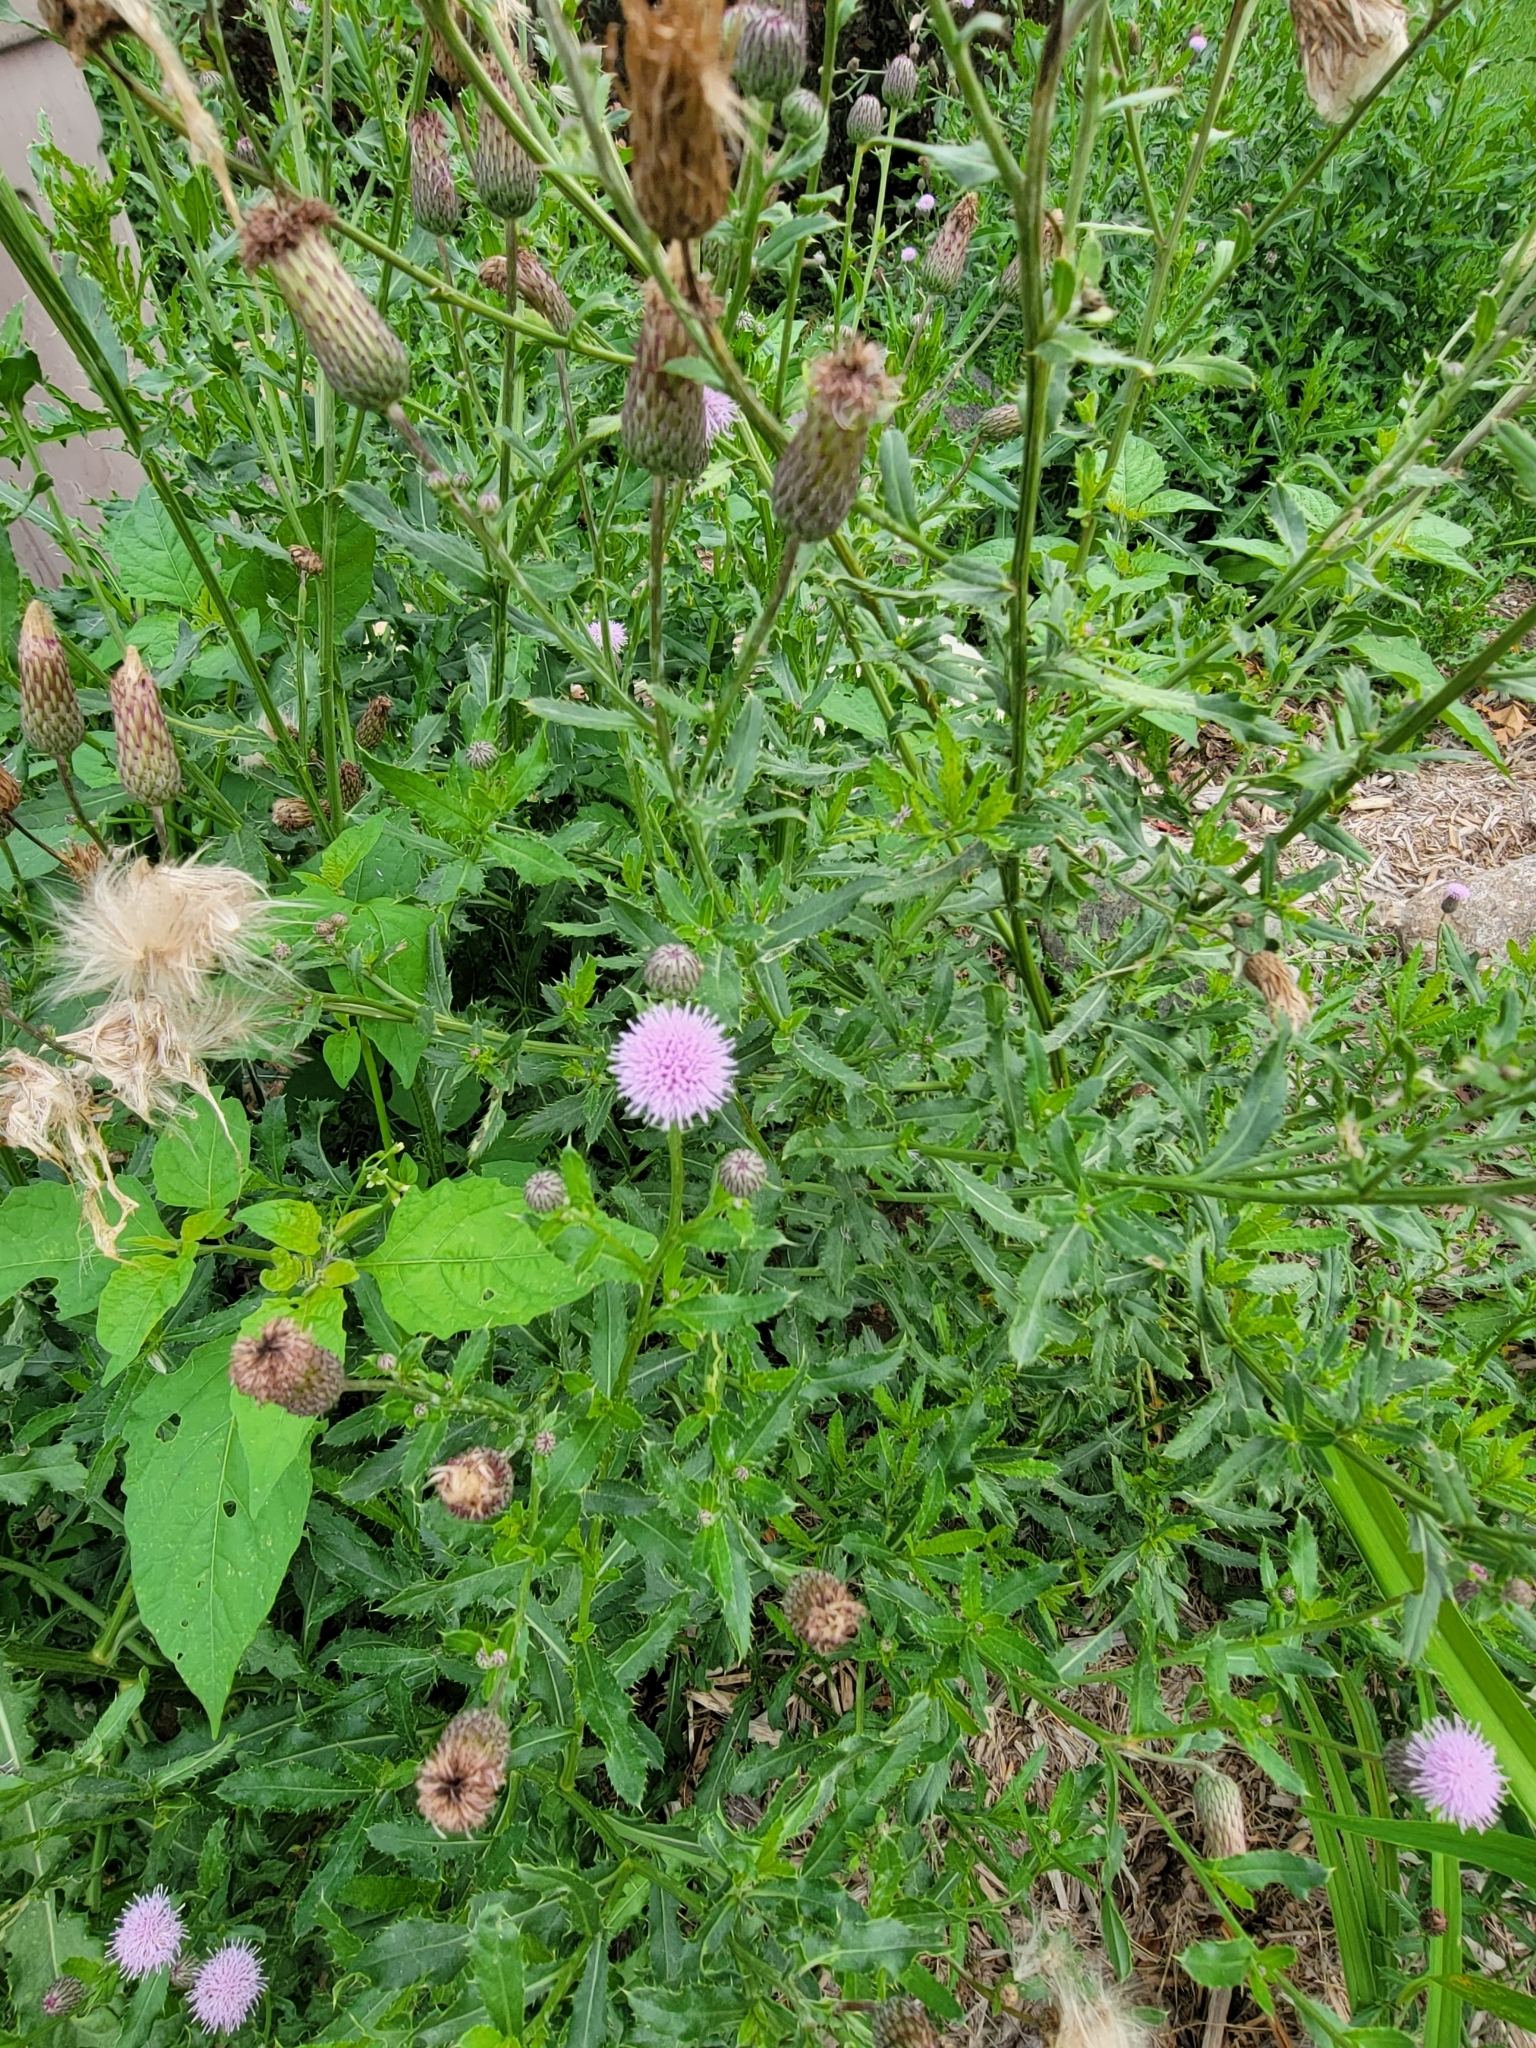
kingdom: Plantae
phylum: Tracheophyta
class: Magnoliopsida
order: Asterales
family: Asteraceae
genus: Cirsium
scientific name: Cirsium arvense
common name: Creeping thistle
